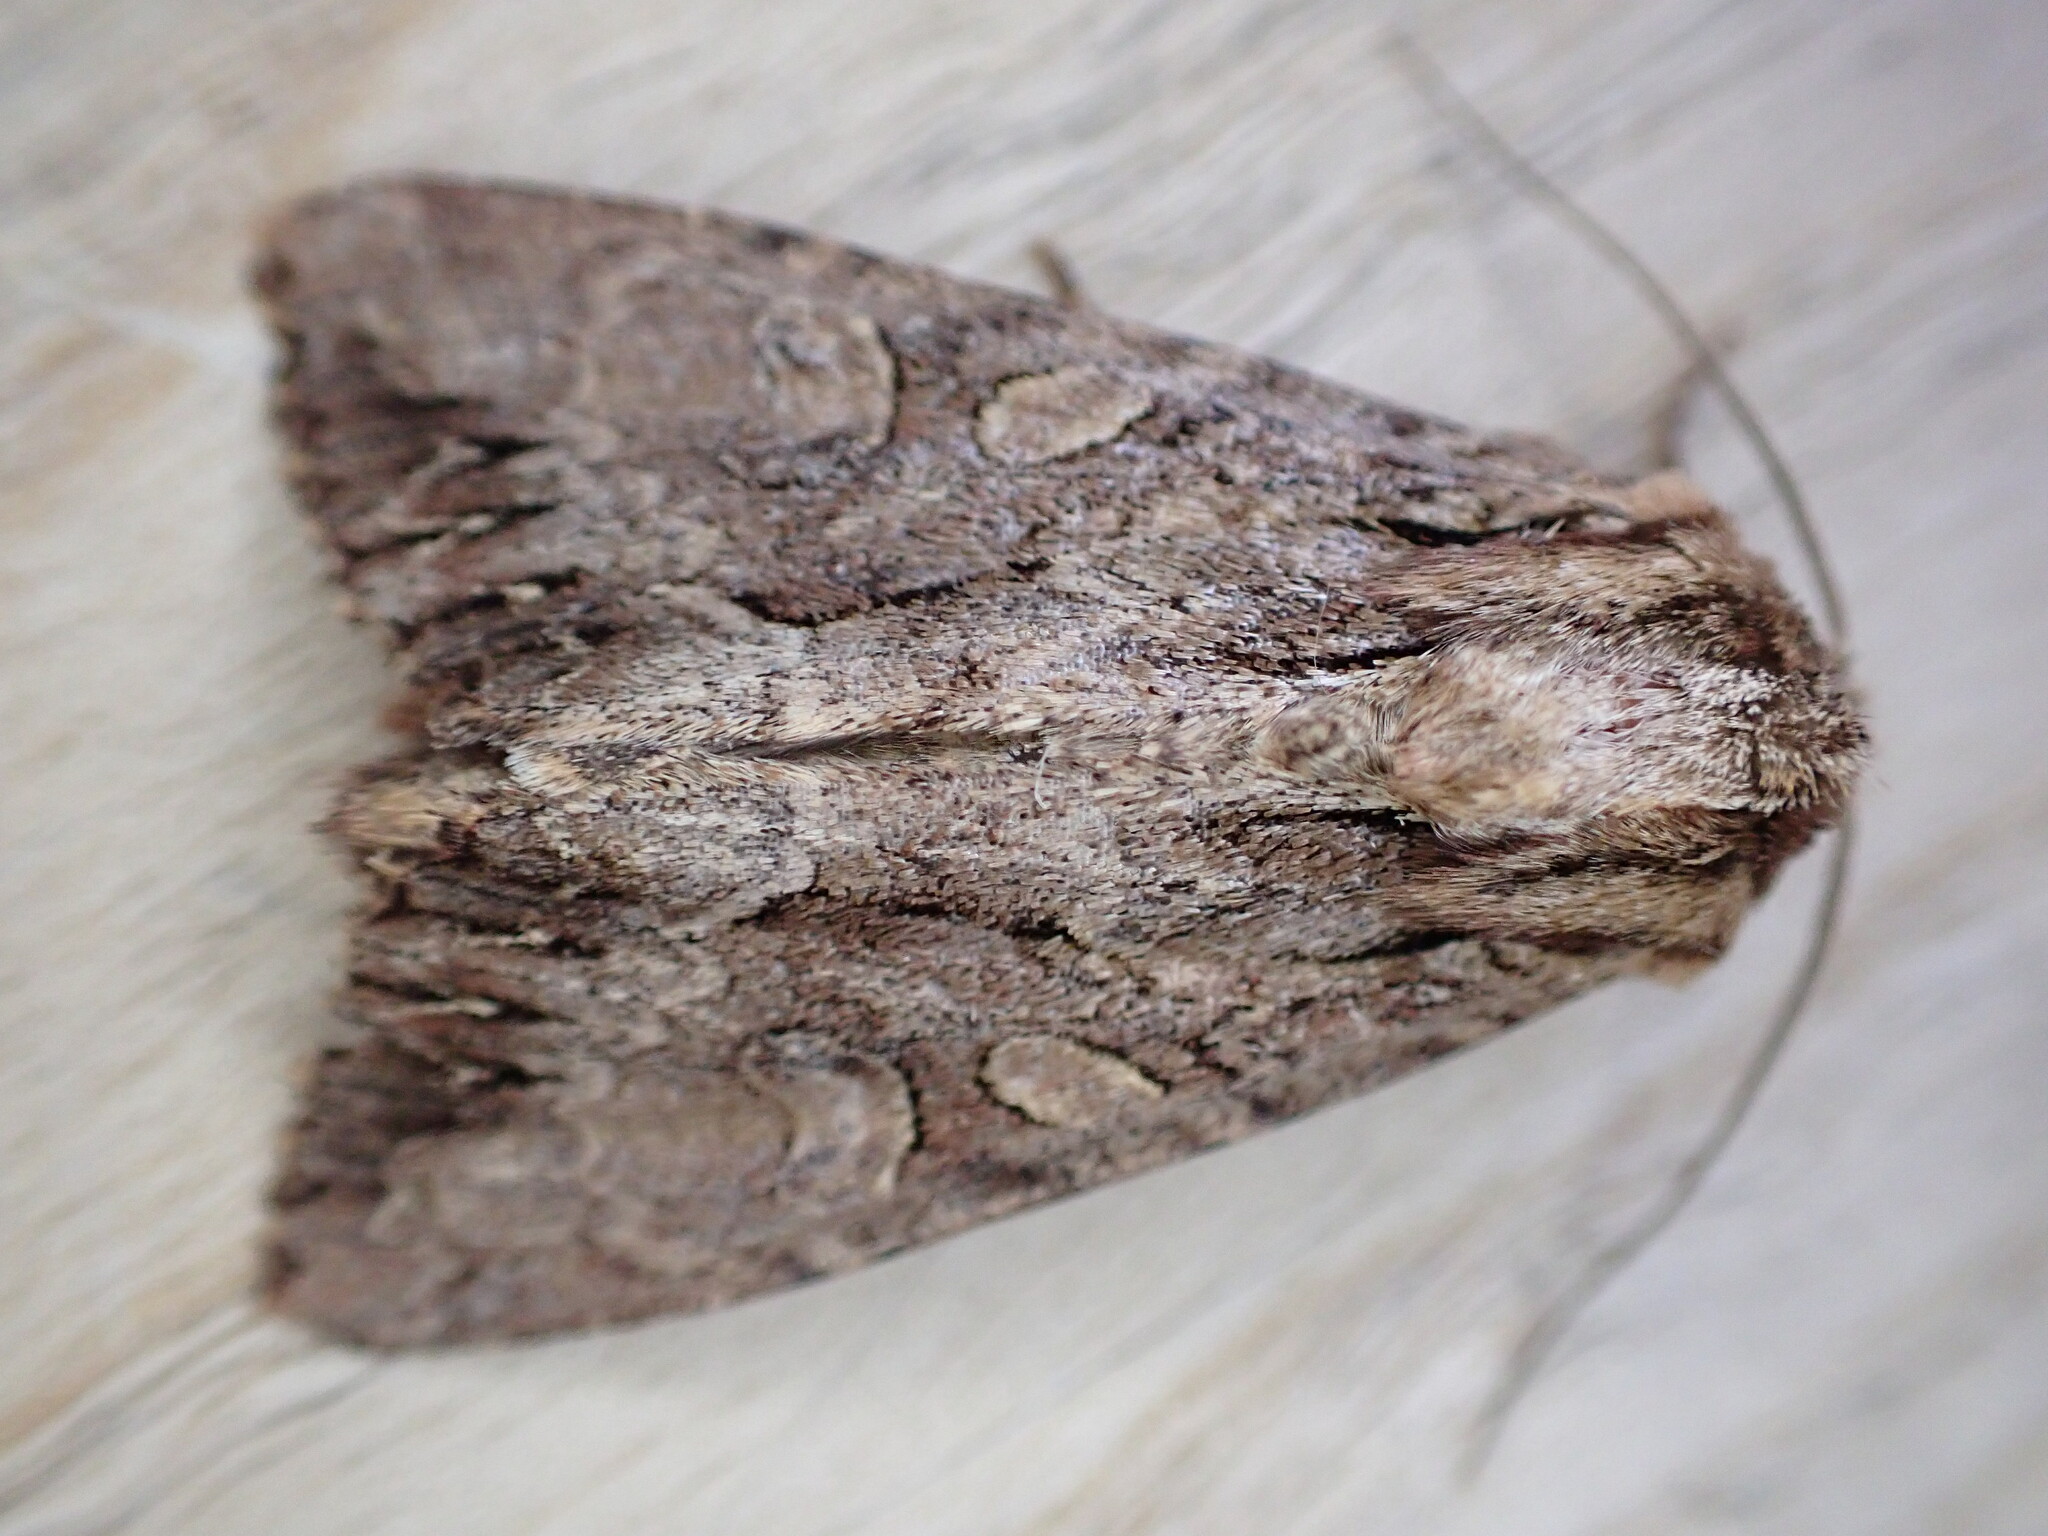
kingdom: Animalia
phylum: Arthropoda
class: Insecta
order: Lepidoptera
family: Noctuidae
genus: Apamea
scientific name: Apamea monoglypha
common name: Dark arches
